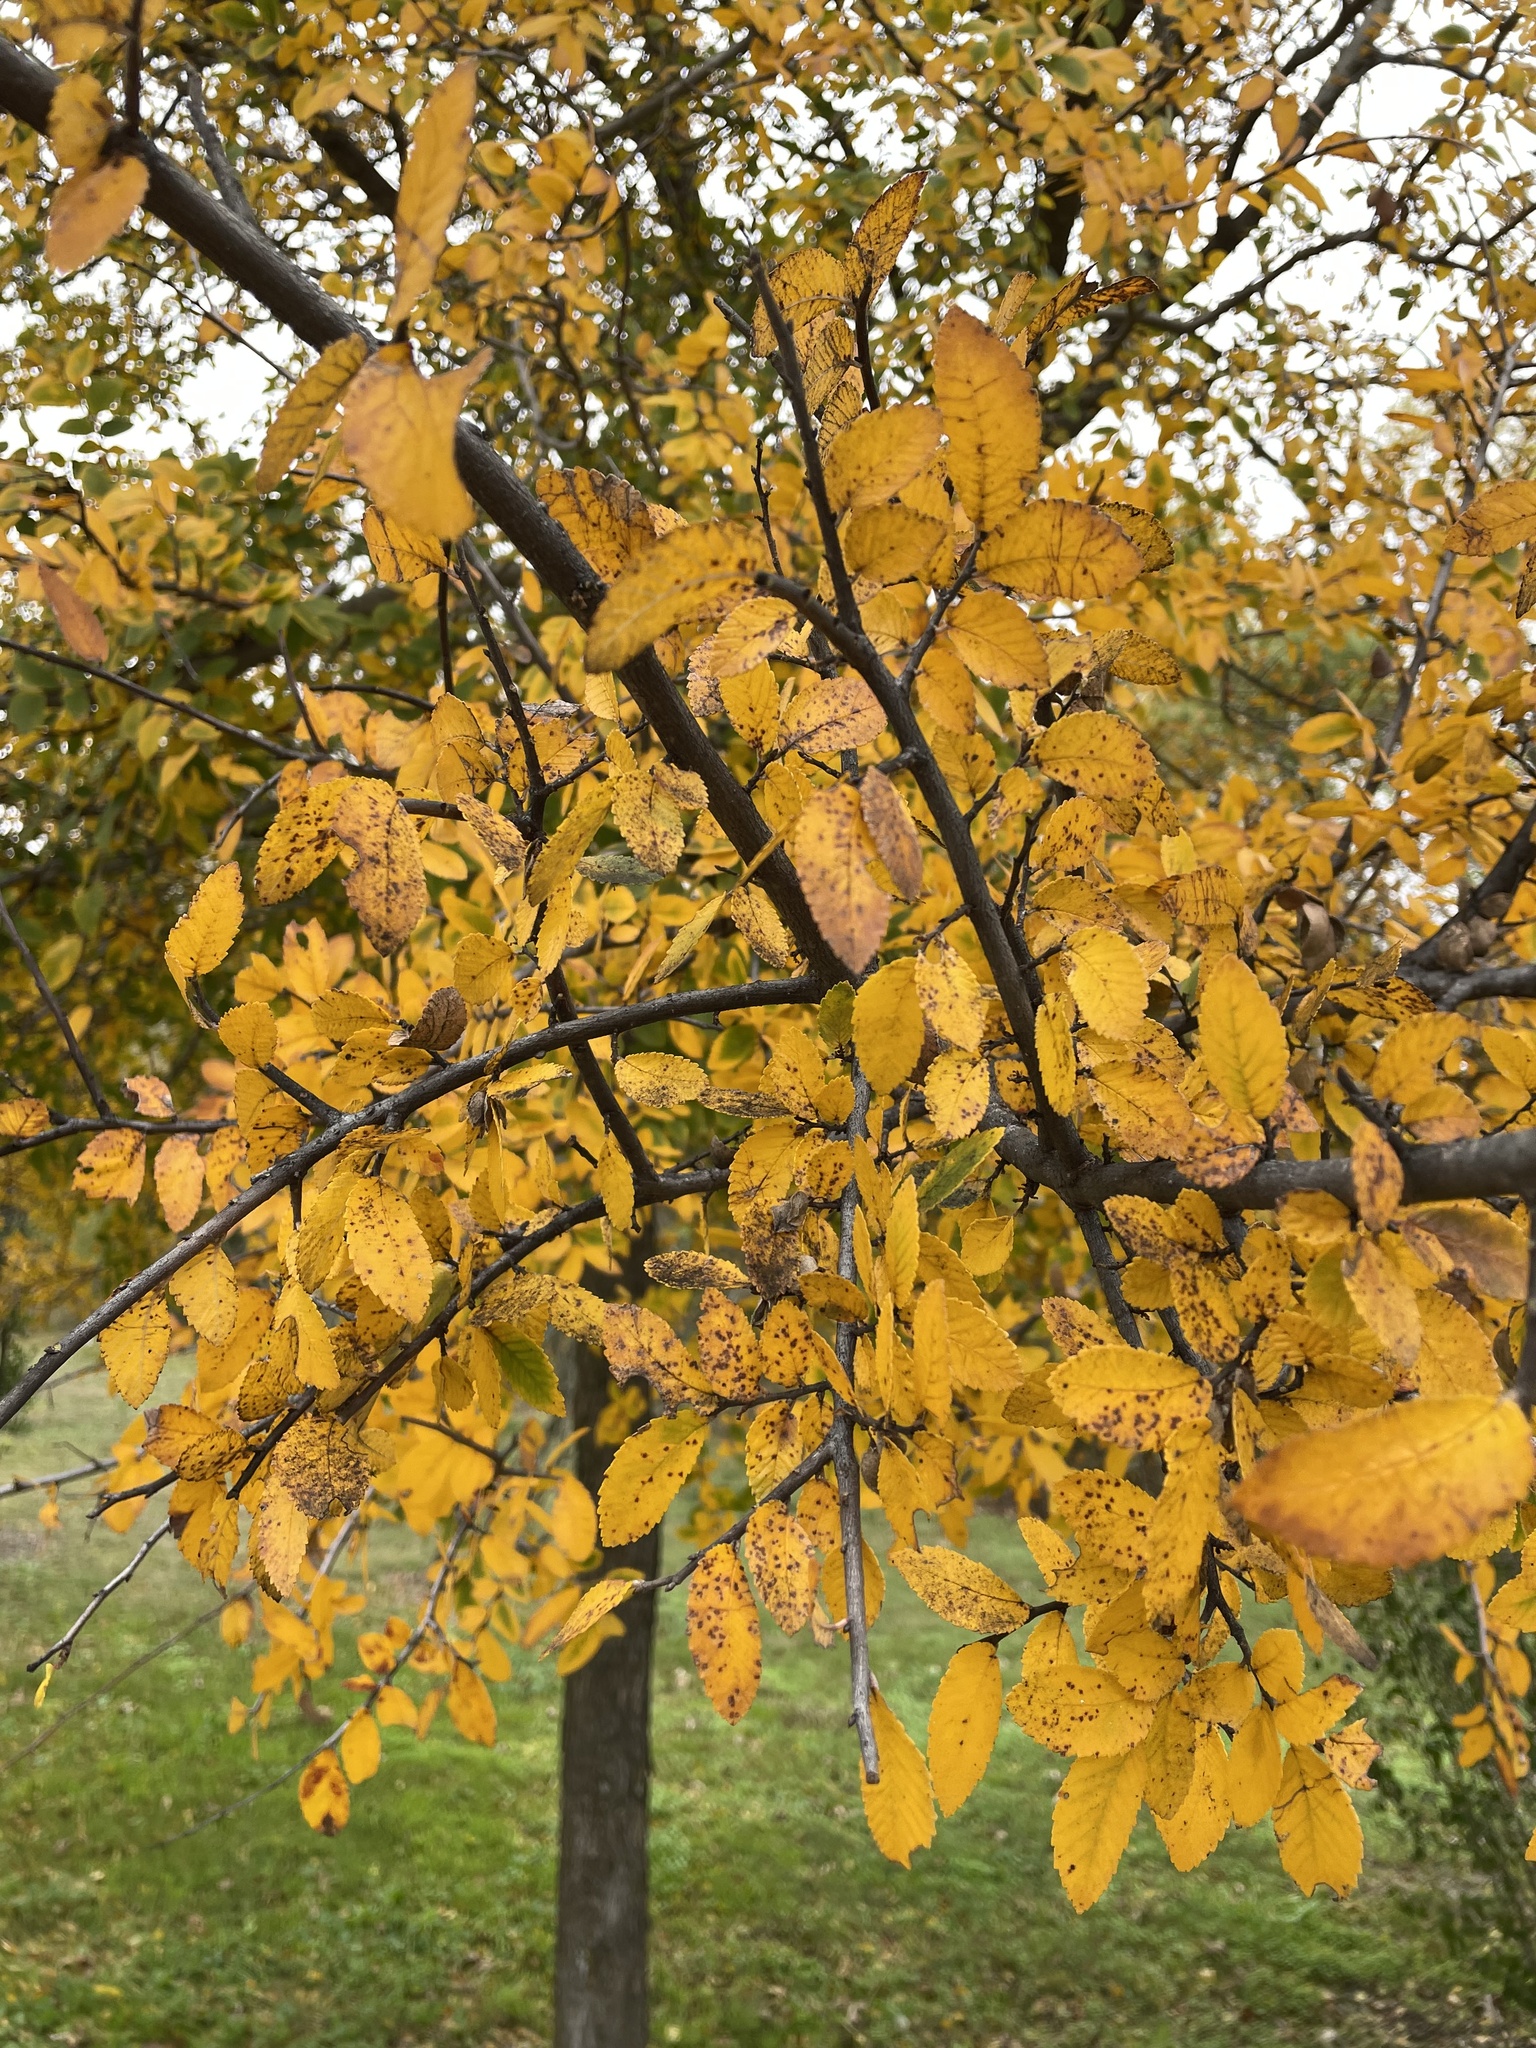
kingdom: Plantae
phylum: Tracheophyta
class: Magnoliopsida
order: Rosales
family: Ulmaceae
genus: Ulmus
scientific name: Ulmus crassifolia
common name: Basket elm
